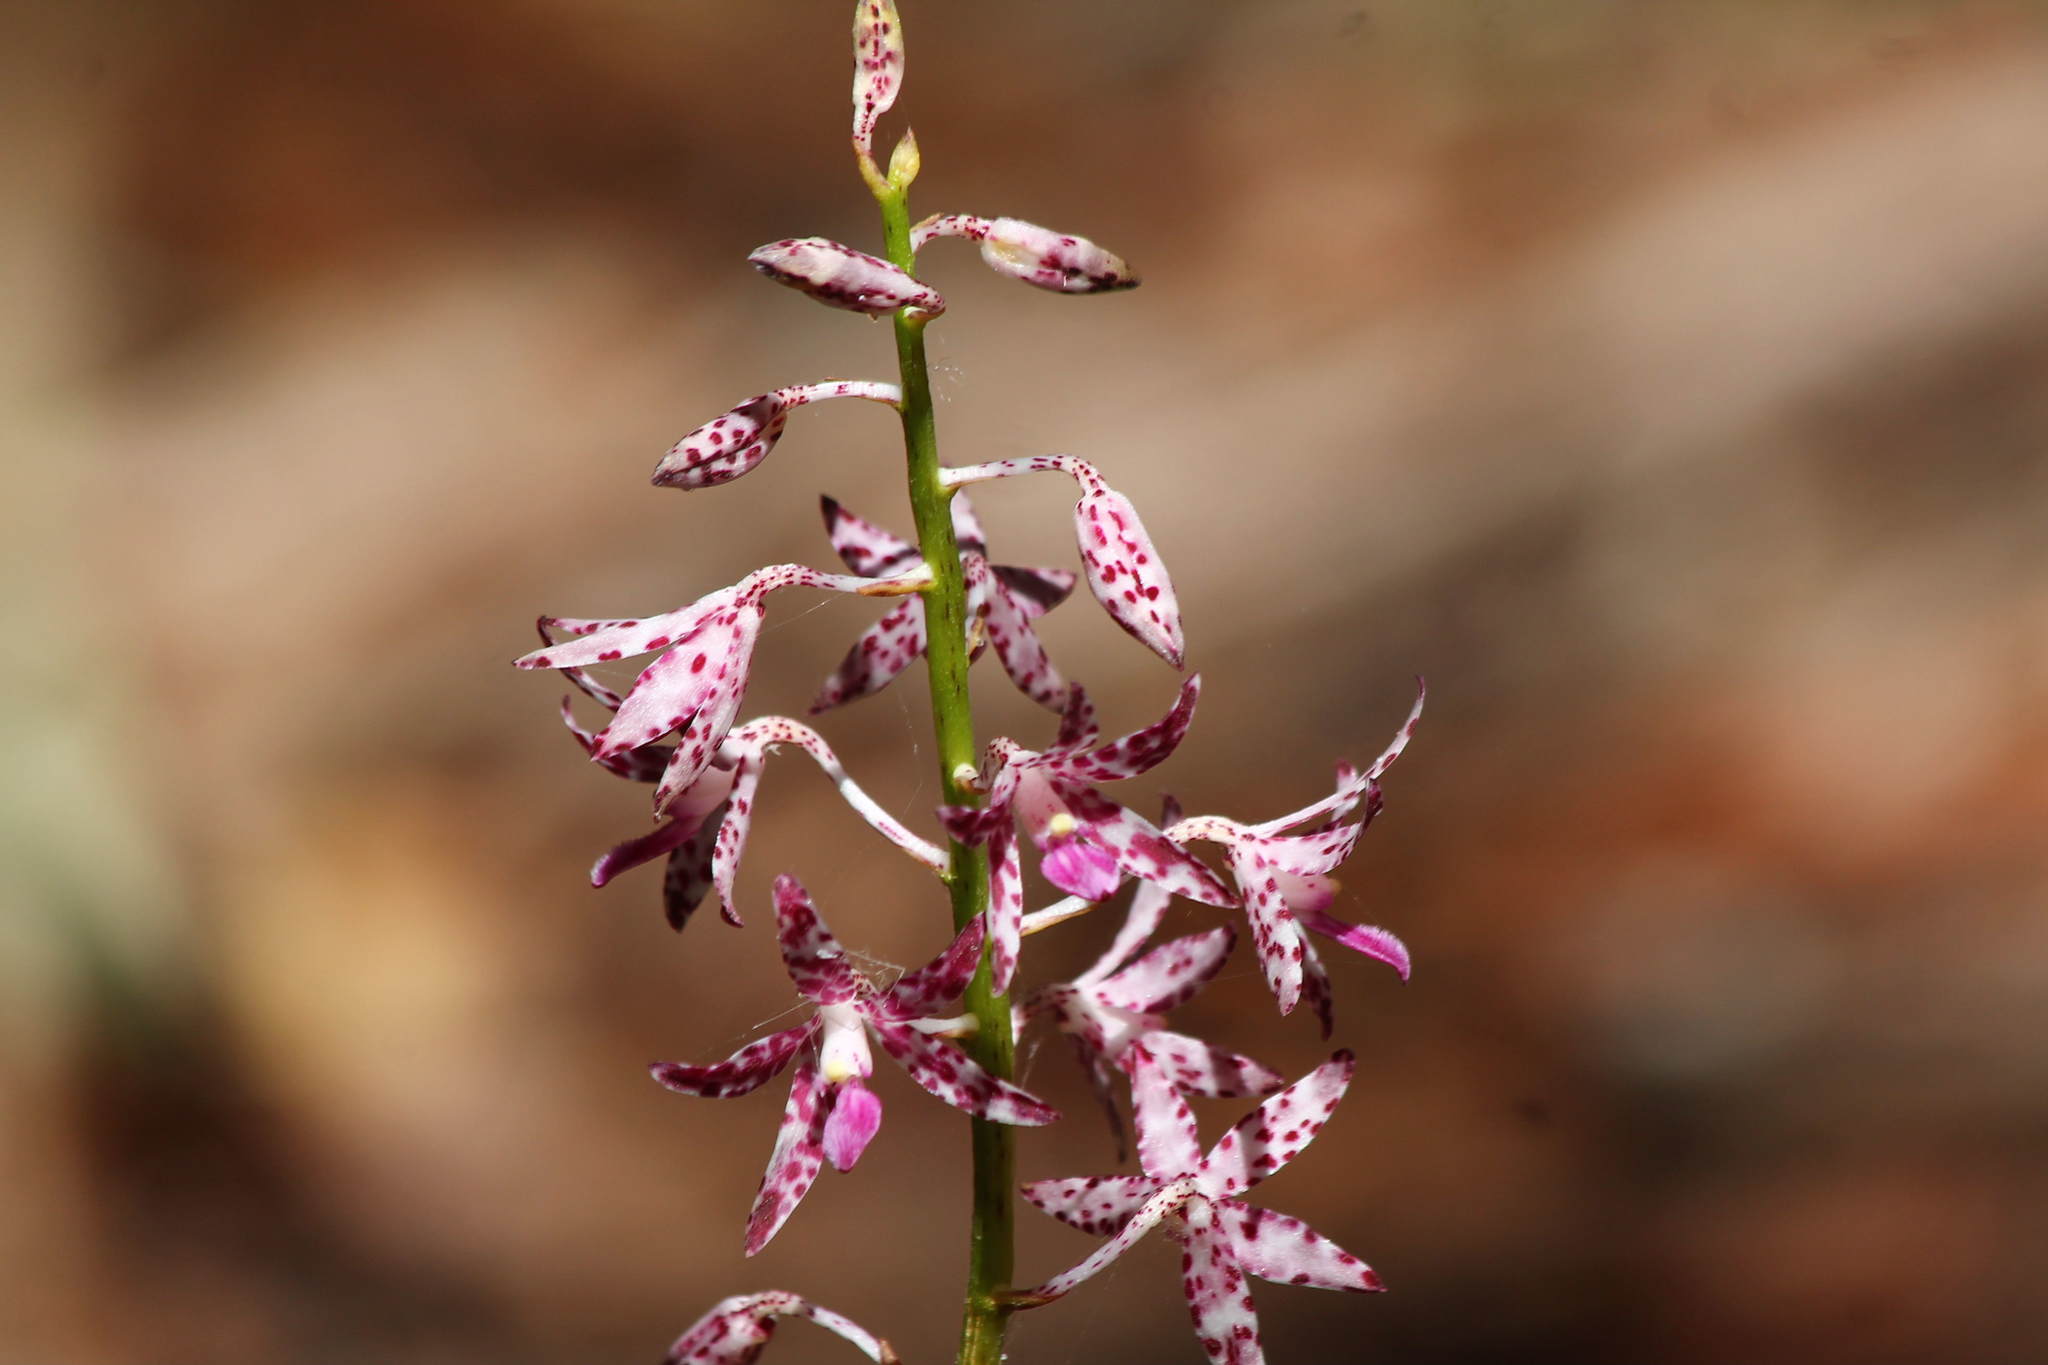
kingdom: Plantae
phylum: Tracheophyta
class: Liliopsida
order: Asparagales
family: Orchidaceae
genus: Dipodium
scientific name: Dipodium variegatum
